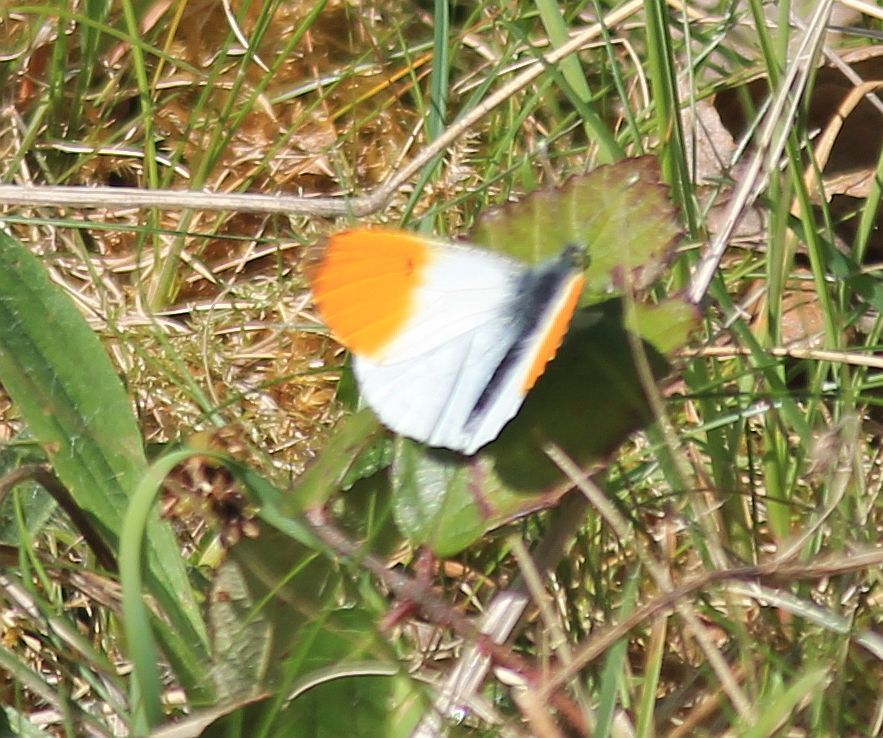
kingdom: Animalia
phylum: Arthropoda
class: Insecta
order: Lepidoptera
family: Pieridae
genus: Anthocharis
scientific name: Anthocharis cardamines
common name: Orange-tip
